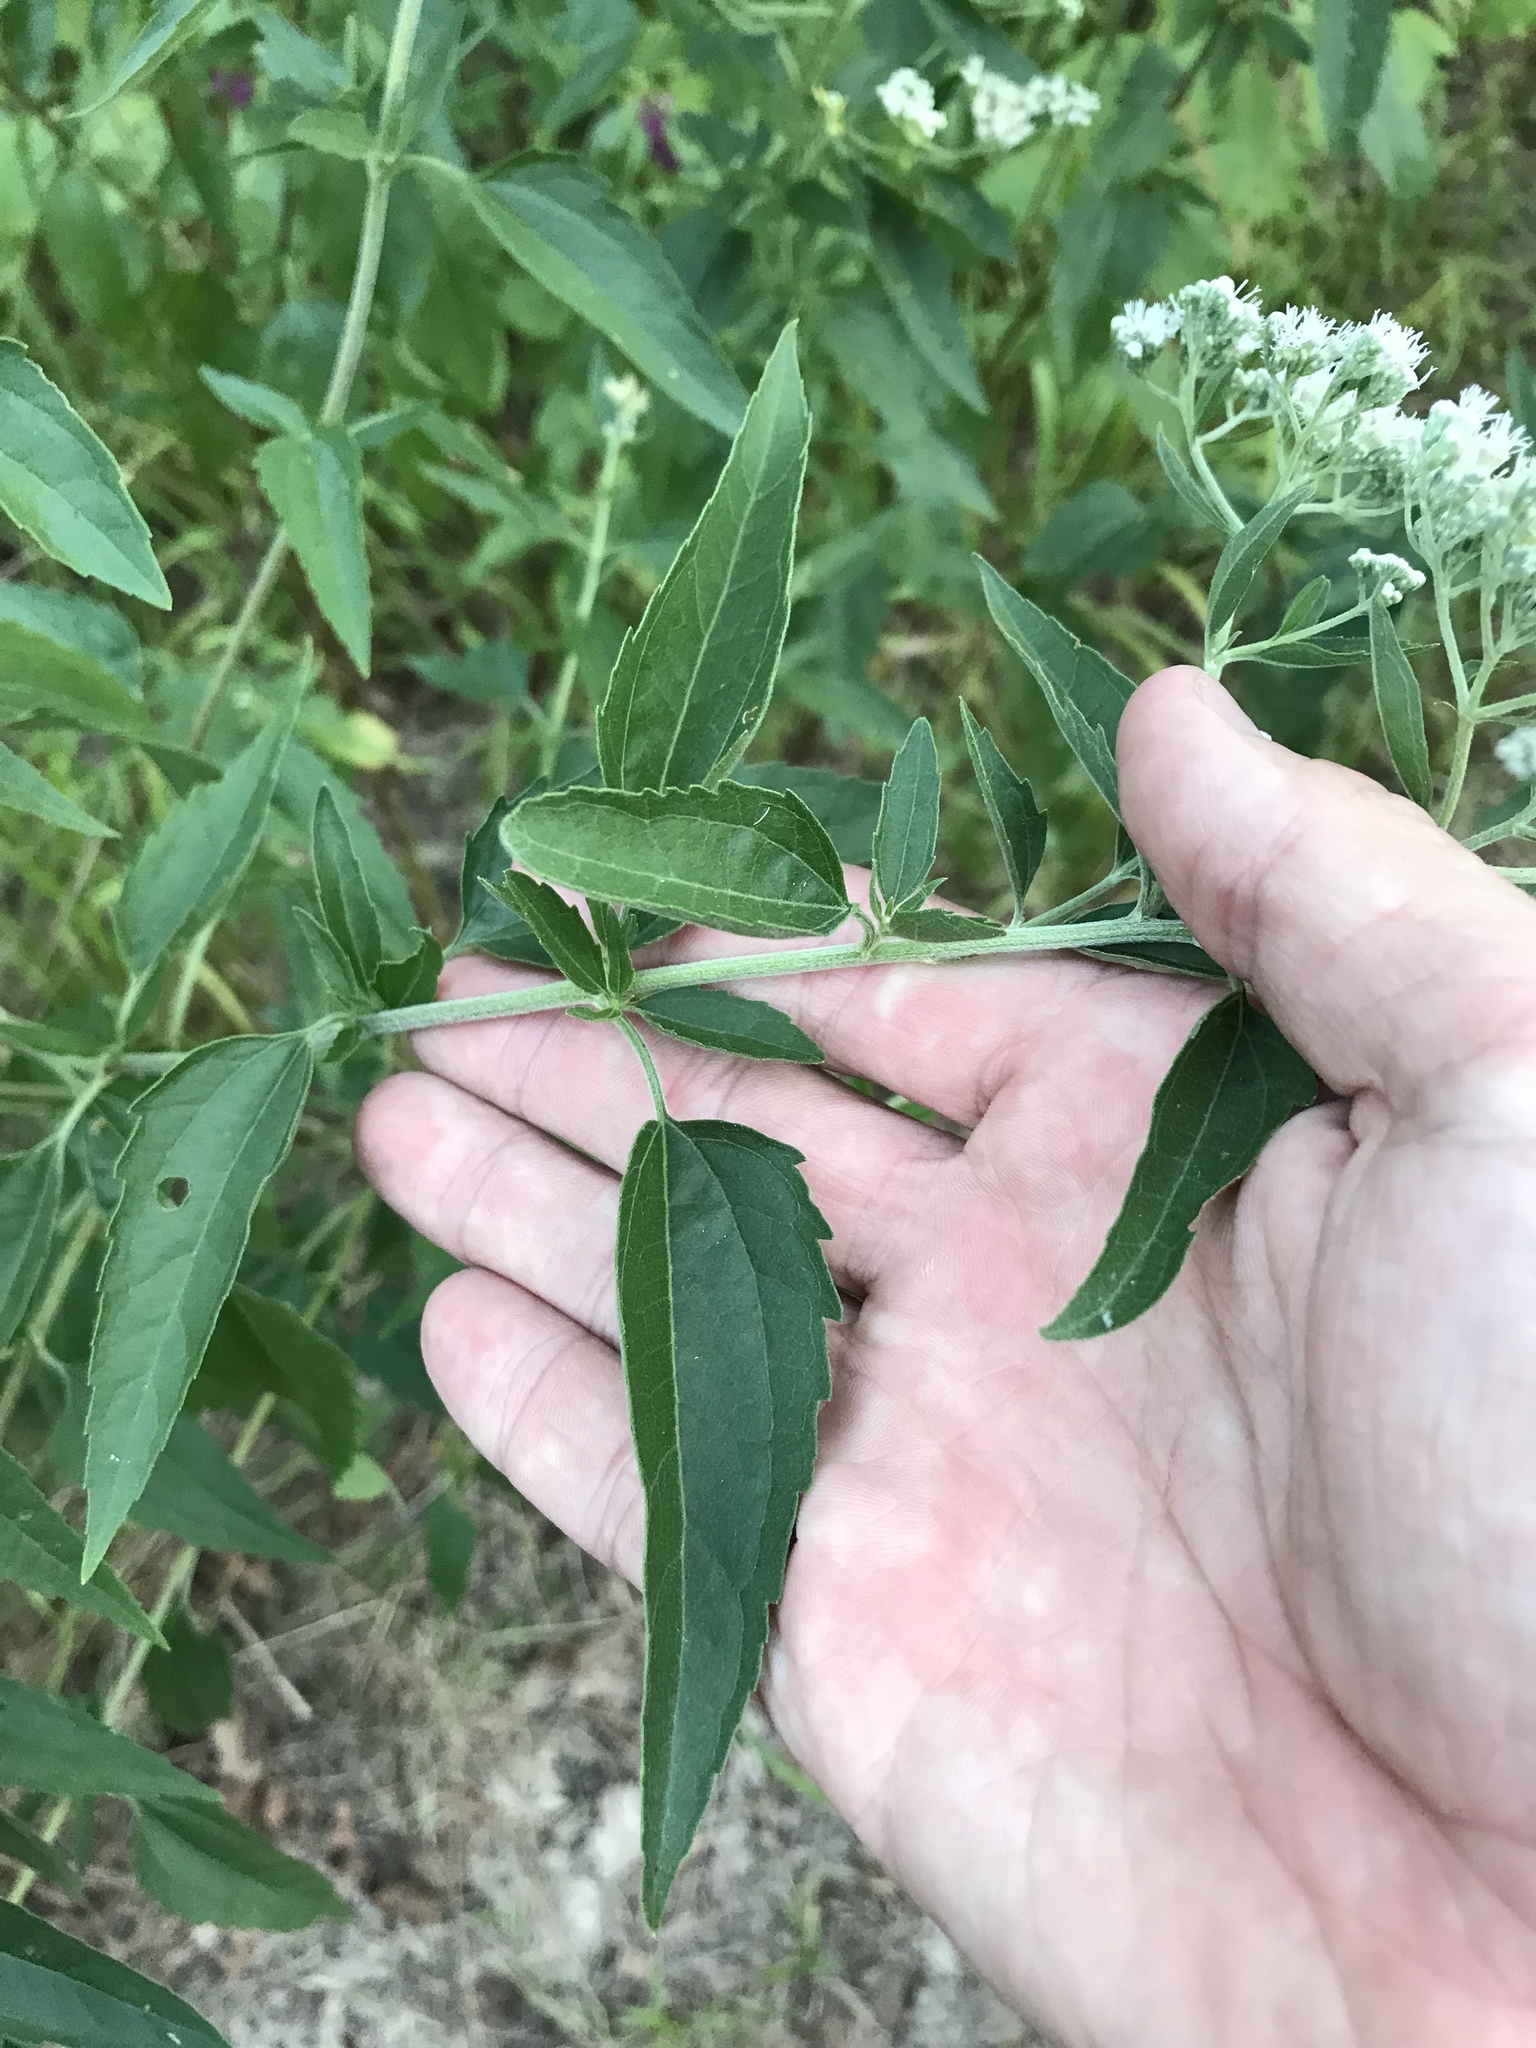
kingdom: Plantae
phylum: Tracheophyta
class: Magnoliopsida
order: Asterales
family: Asteraceae
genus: Eupatorium
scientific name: Eupatorium serotinum
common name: Late boneset
